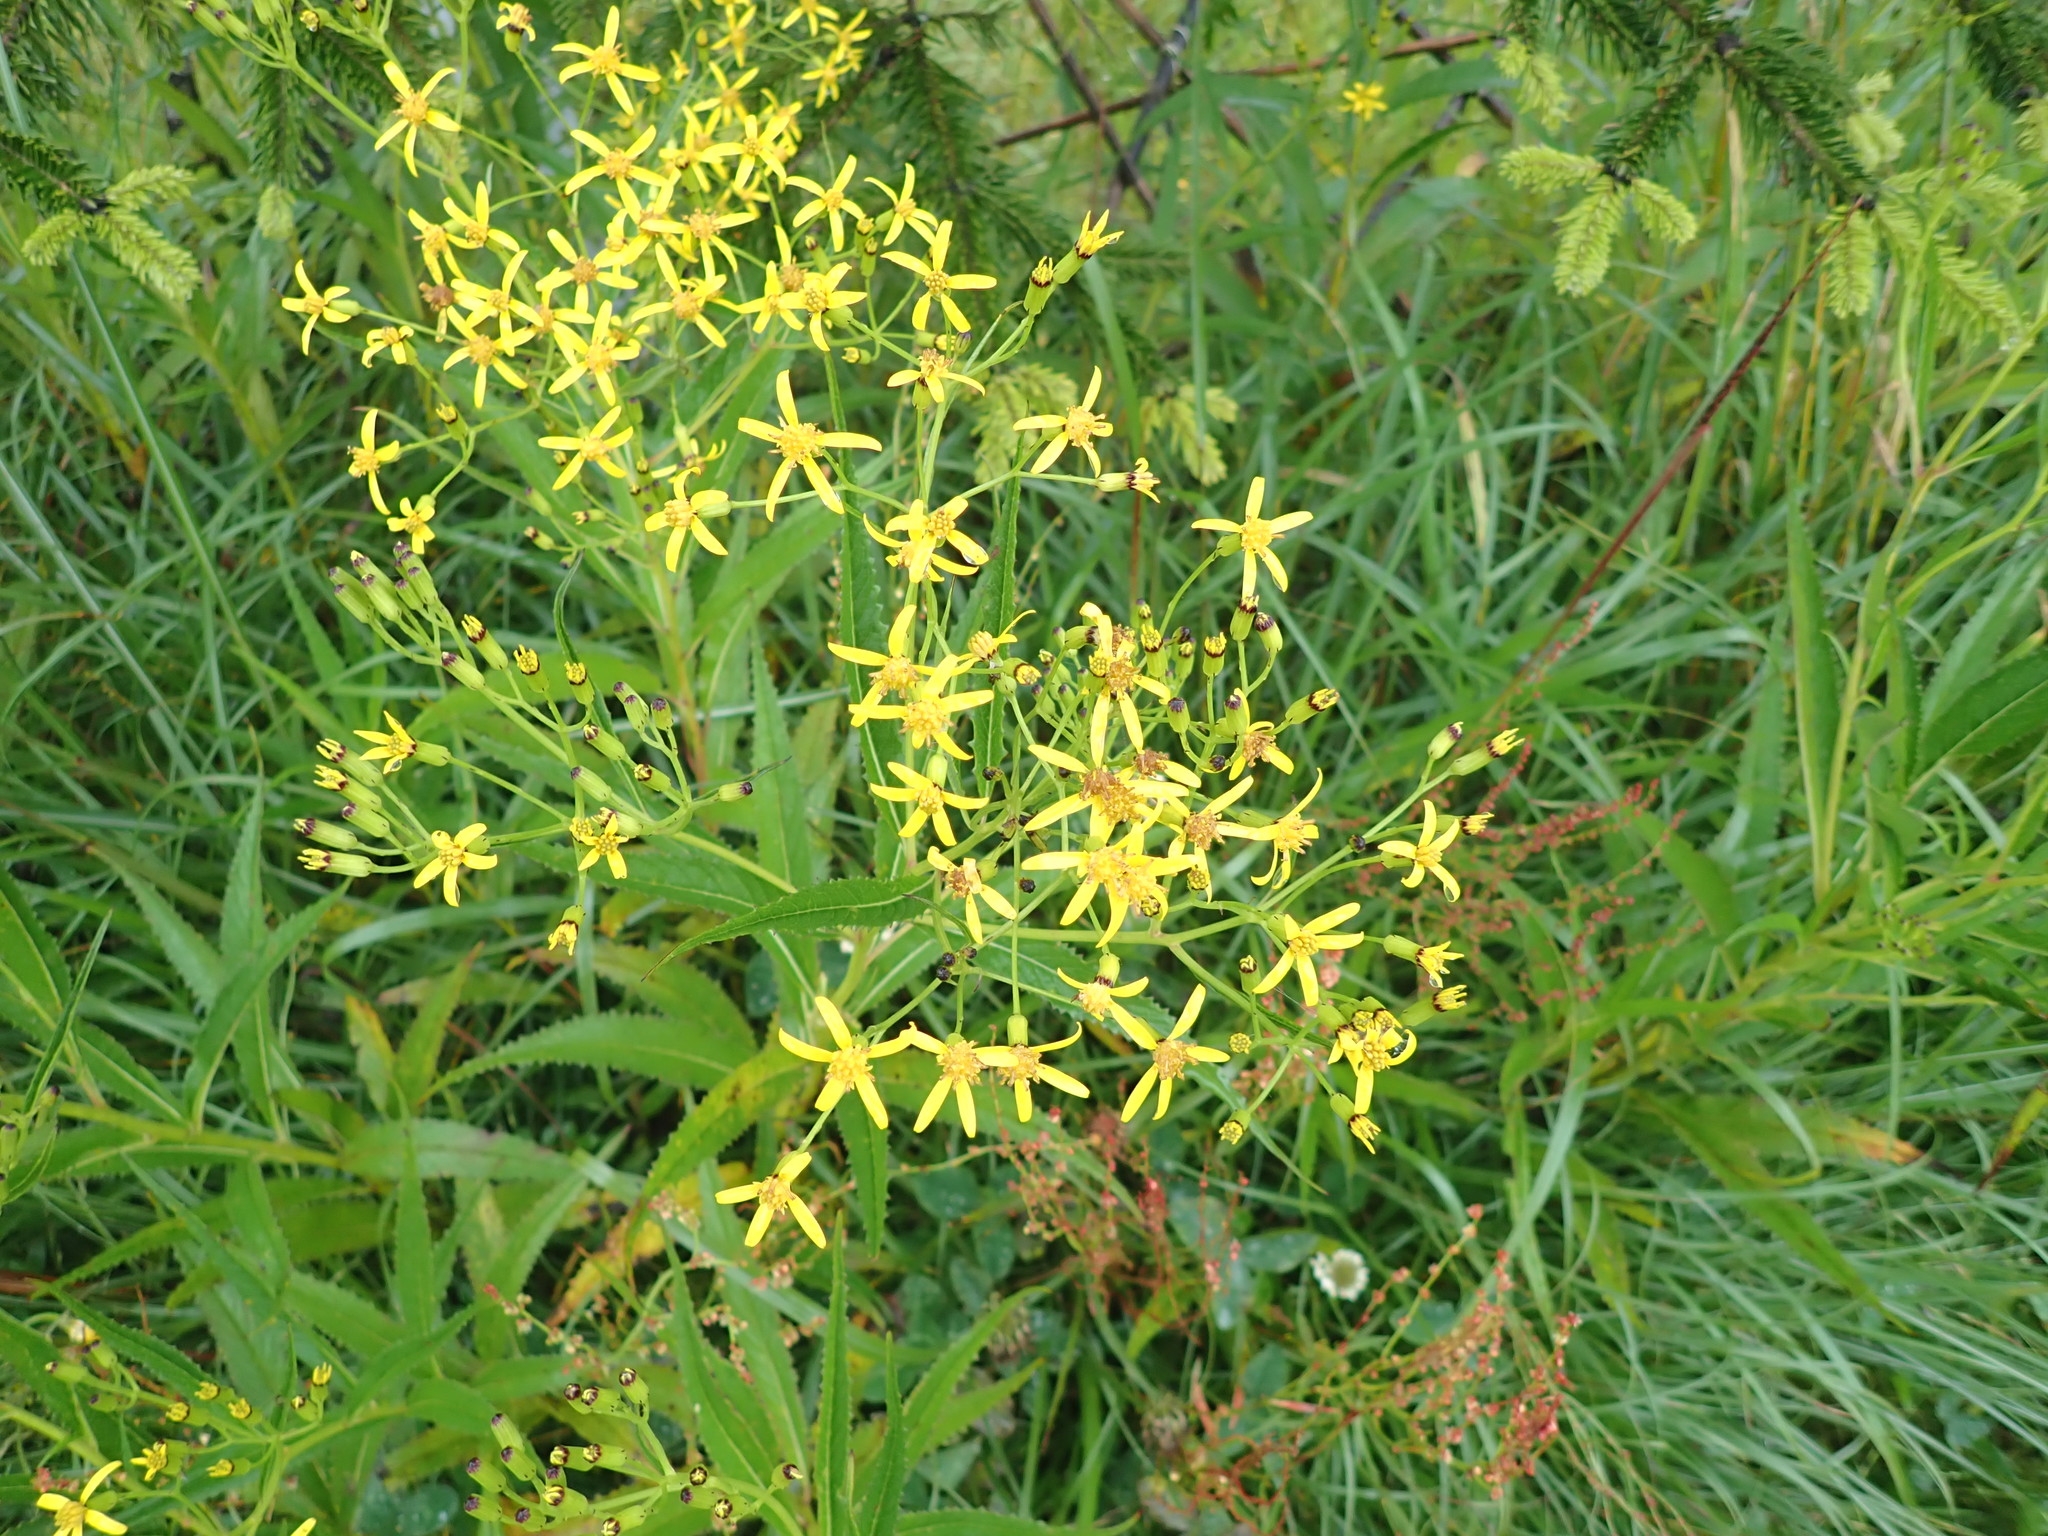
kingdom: Plantae
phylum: Tracheophyta
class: Magnoliopsida
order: Asterales
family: Asteraceae
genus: Jacobaea
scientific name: Jacobaea morrisonensis
